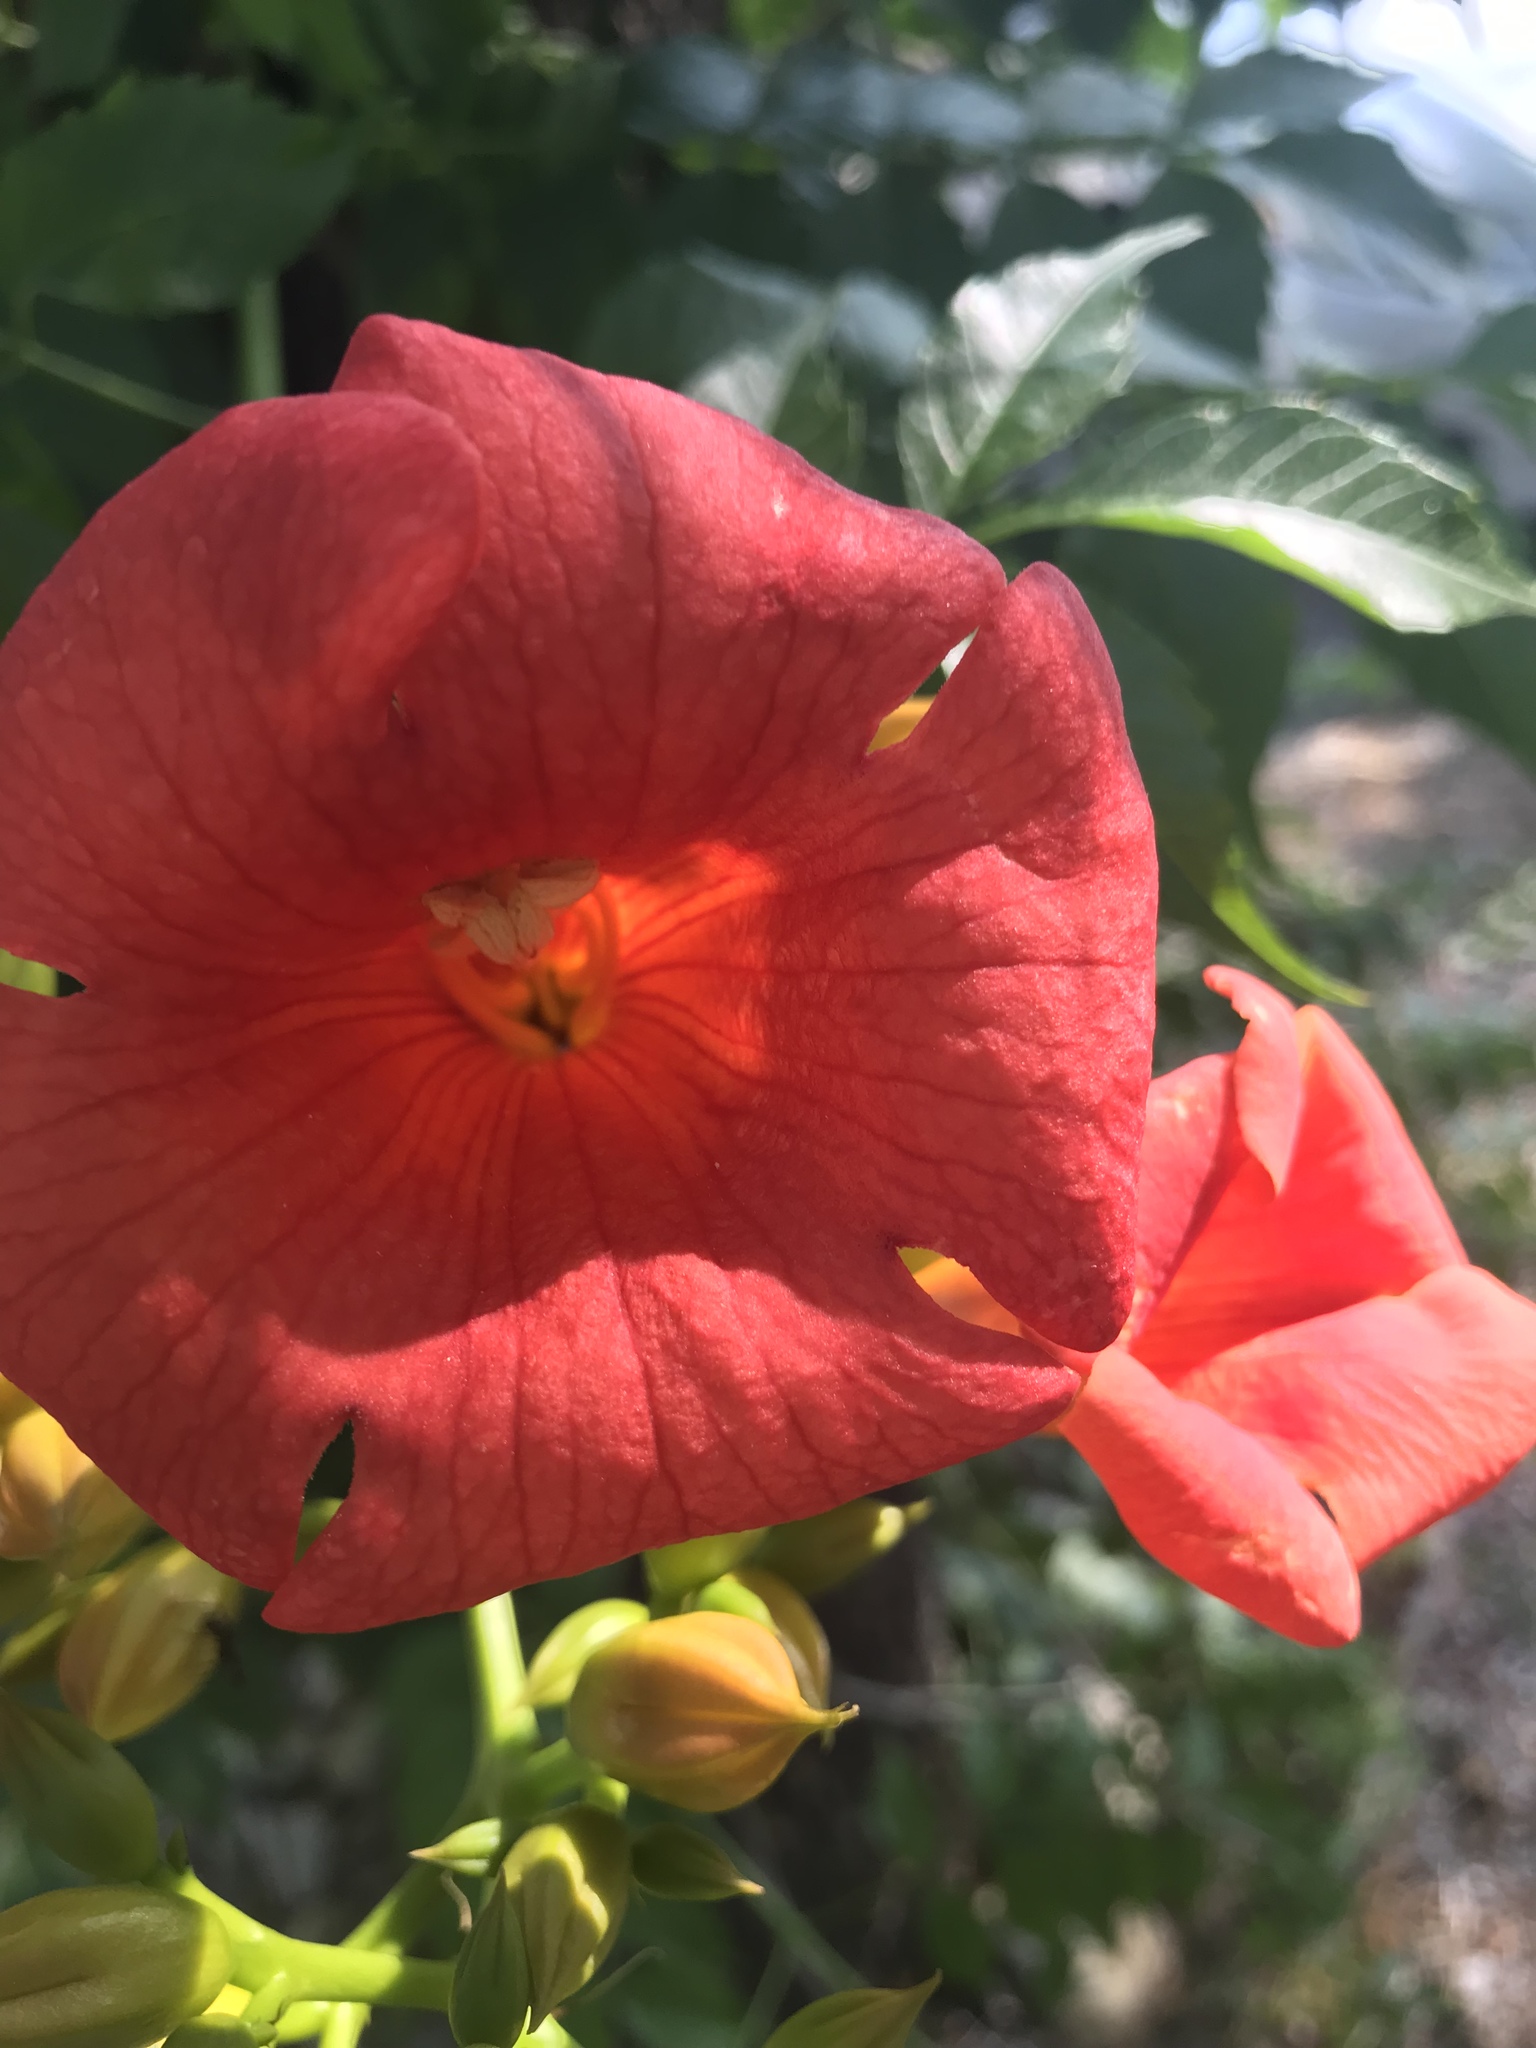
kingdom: Plantae
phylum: Tracheophyta
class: Magnoliopsida
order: Lamiales
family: Bignoniaceae
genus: Campsis
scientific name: Campsis radicans
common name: Trumpet-creeper
